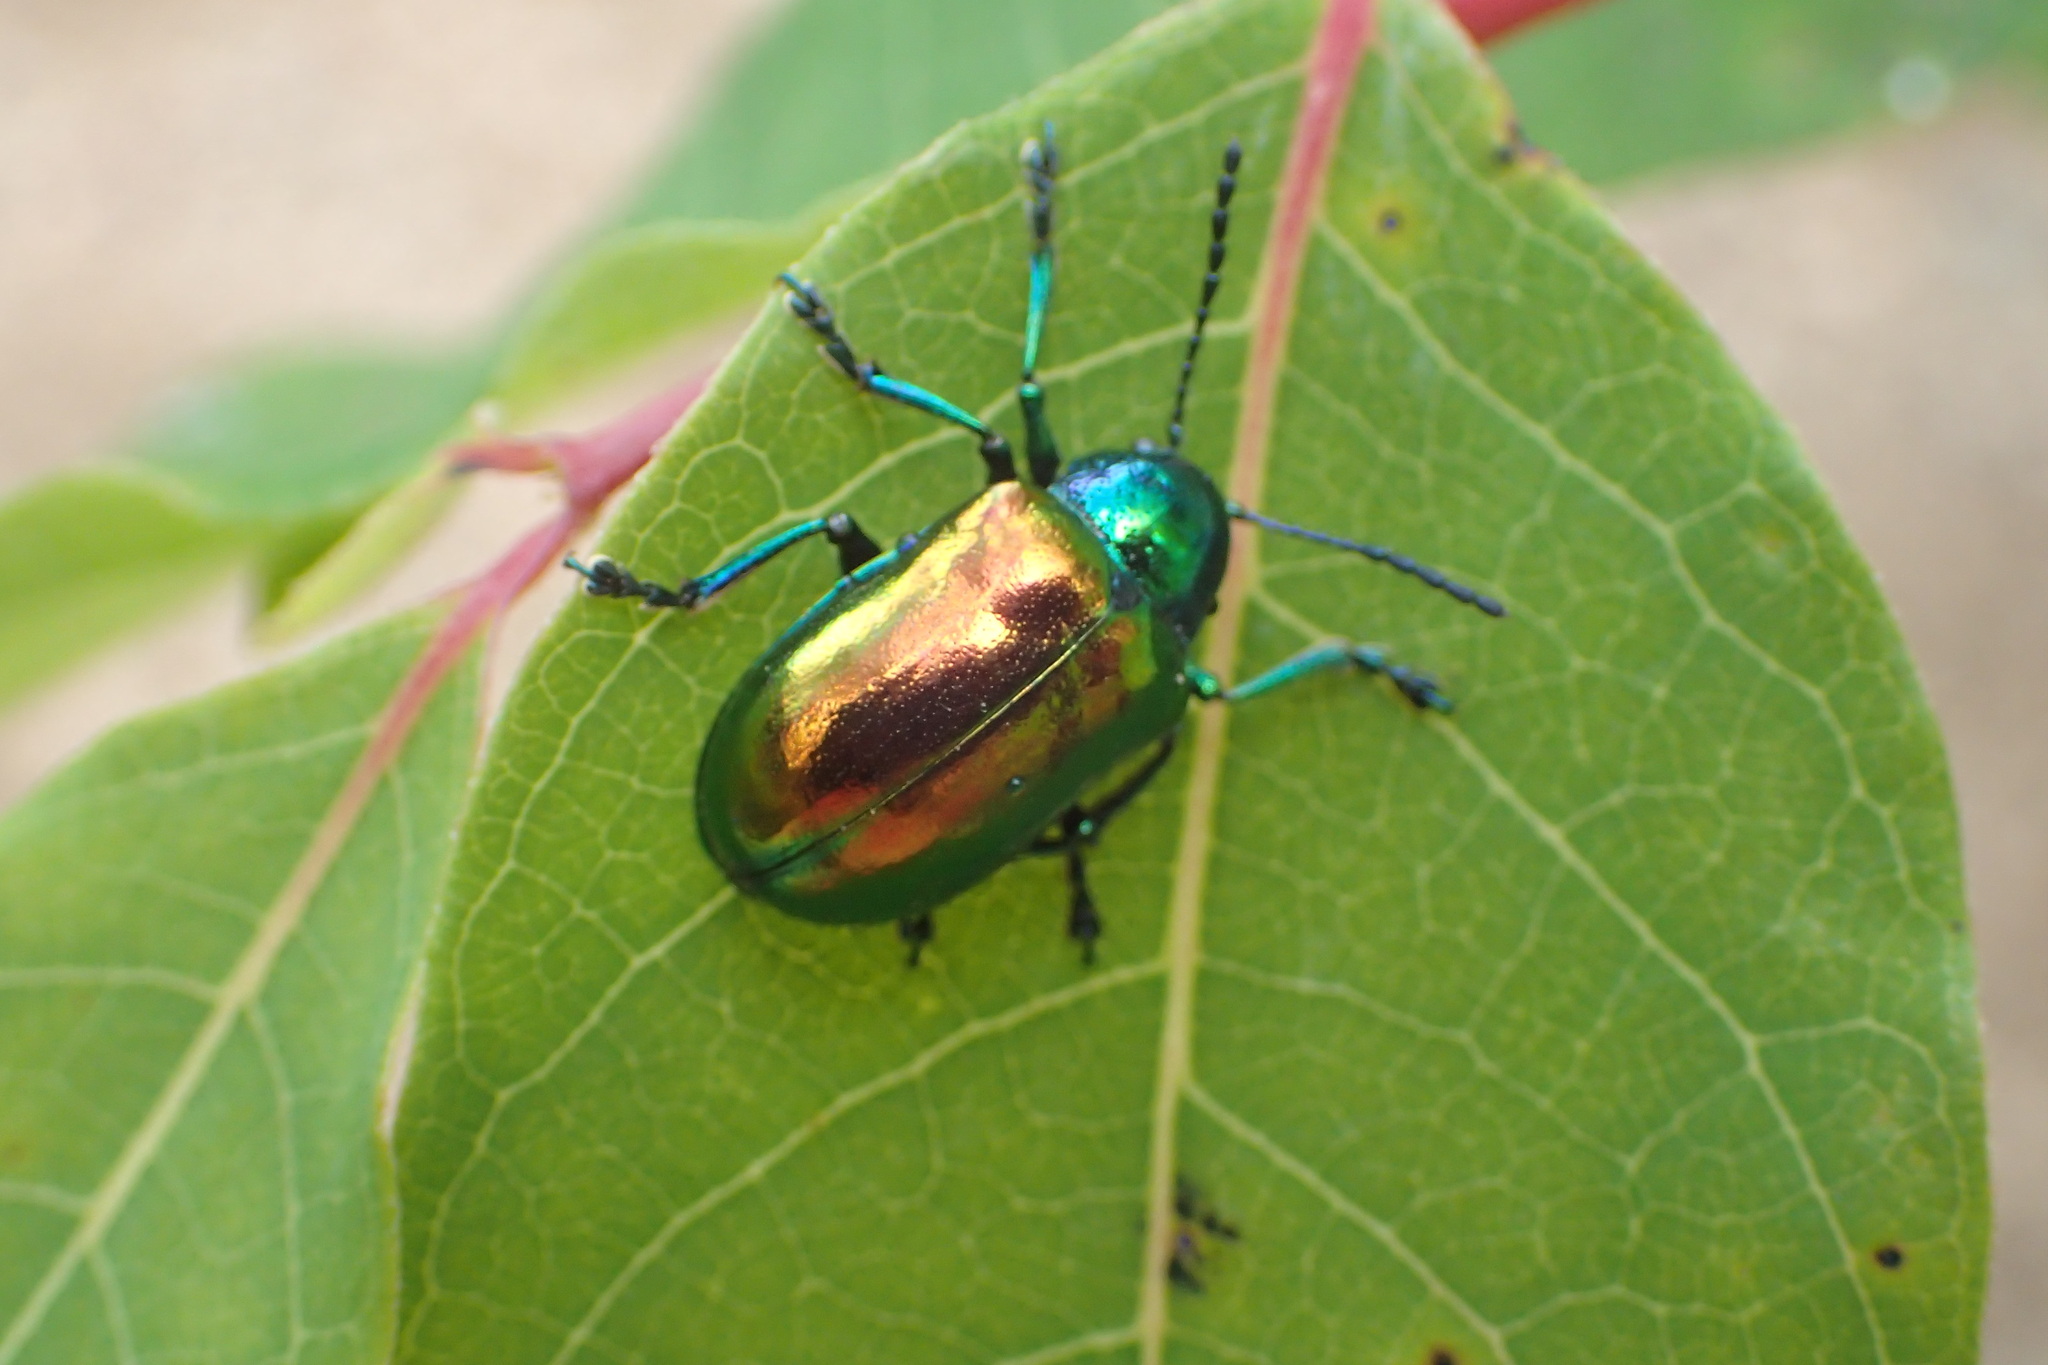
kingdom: Animalia
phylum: Arthropoda
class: Insecta
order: Coleoptera
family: Chrysomelidae
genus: Chrysochus
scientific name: Chrysochus auratus
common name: Dogbane leaf beetle
